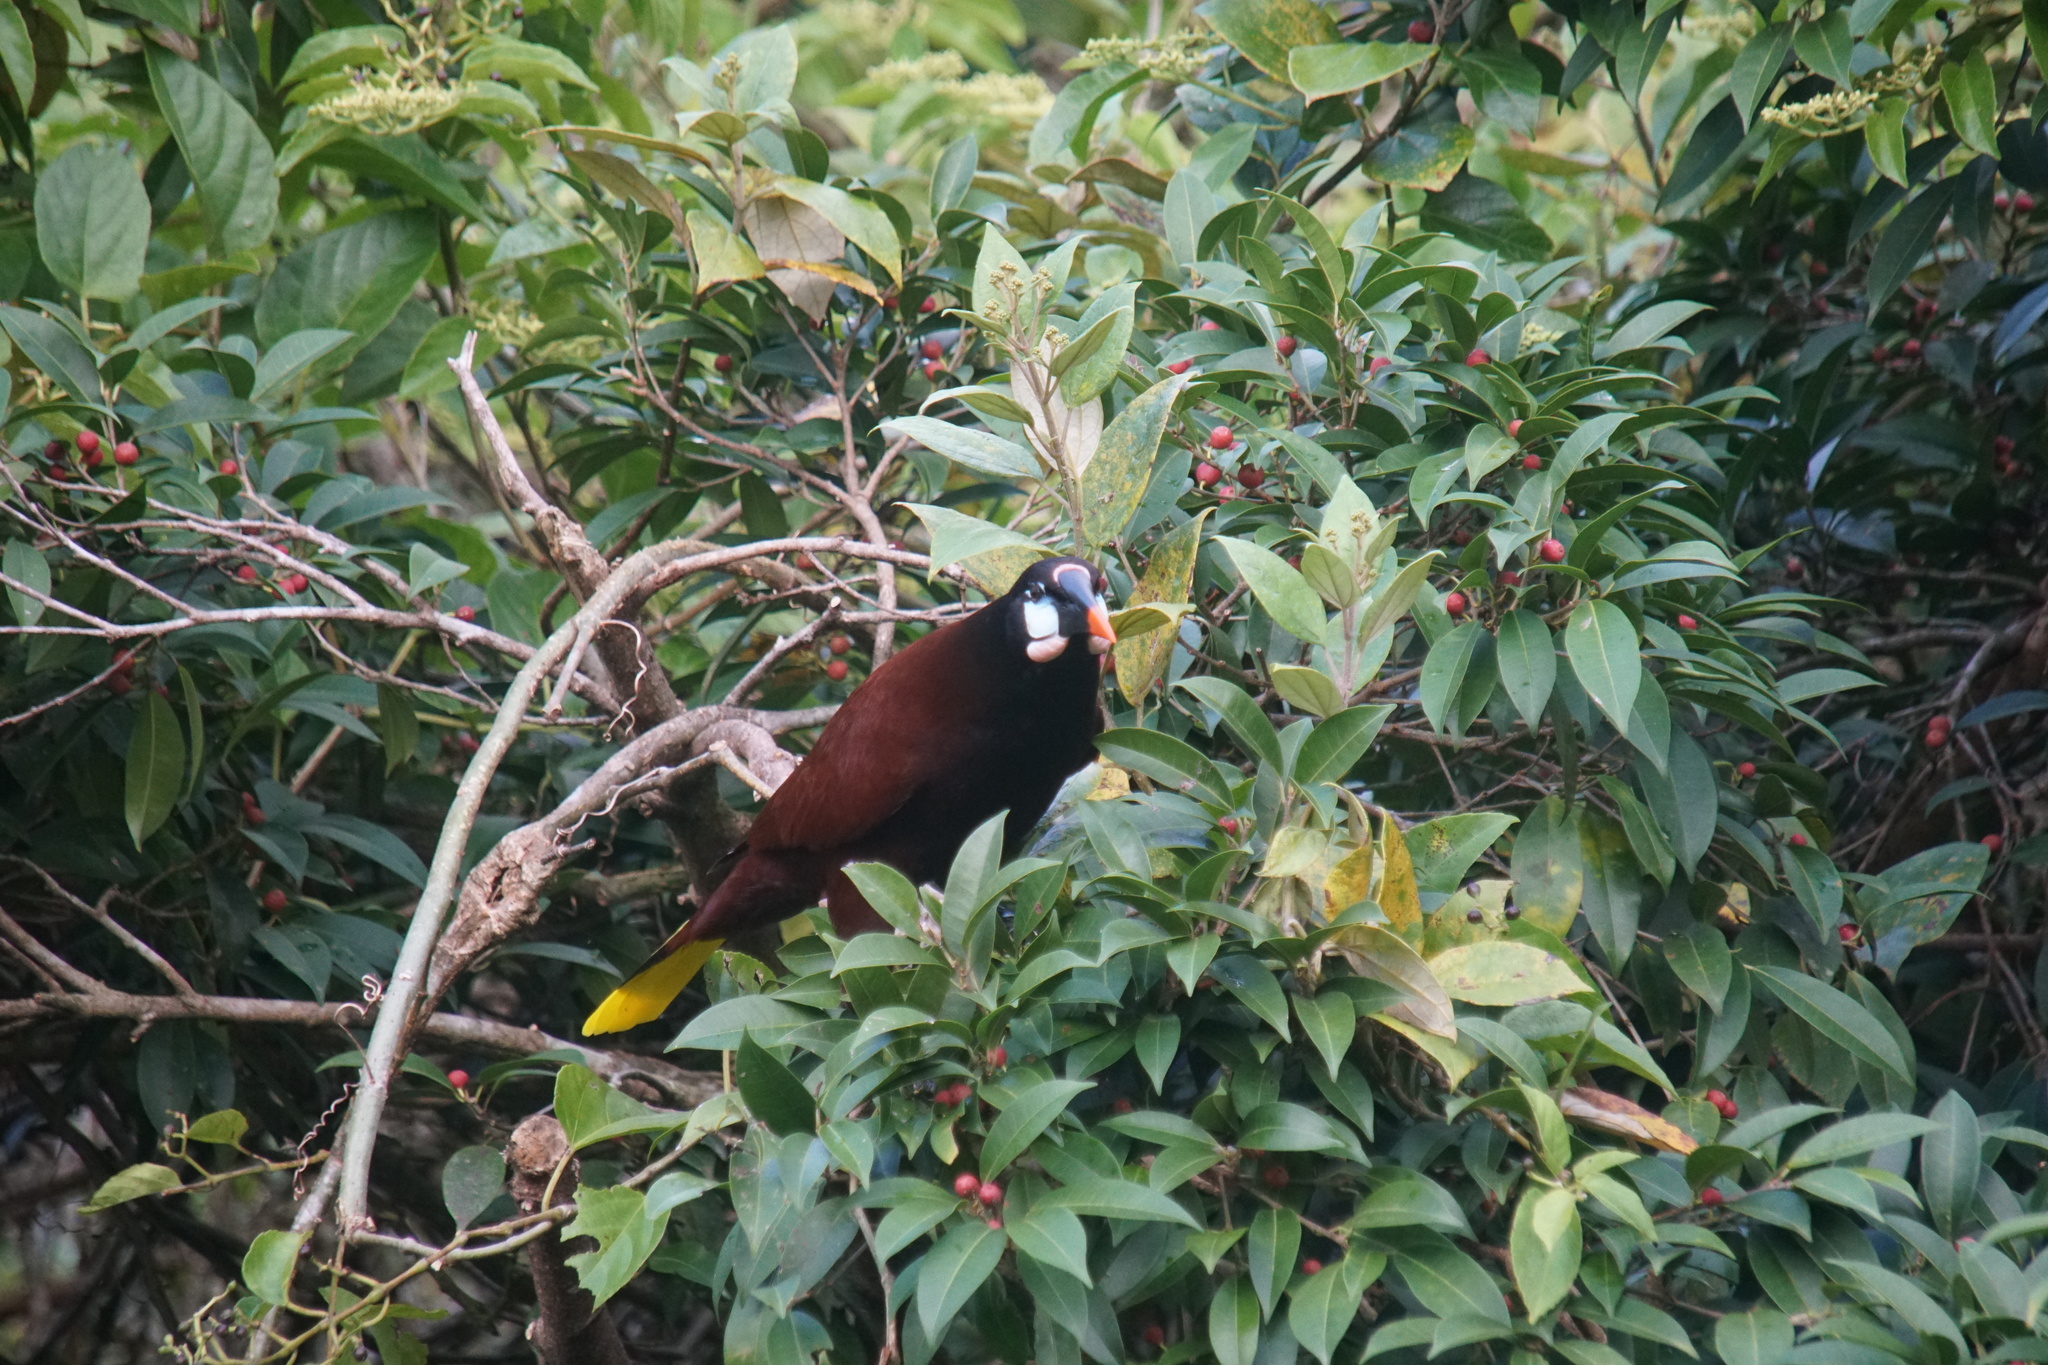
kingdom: Animalia
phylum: Chordata
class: Aves
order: Passeriformes
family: Icteridae
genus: Psarocolius
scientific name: Psarocolius montezuma
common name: Montezuma oropendola
